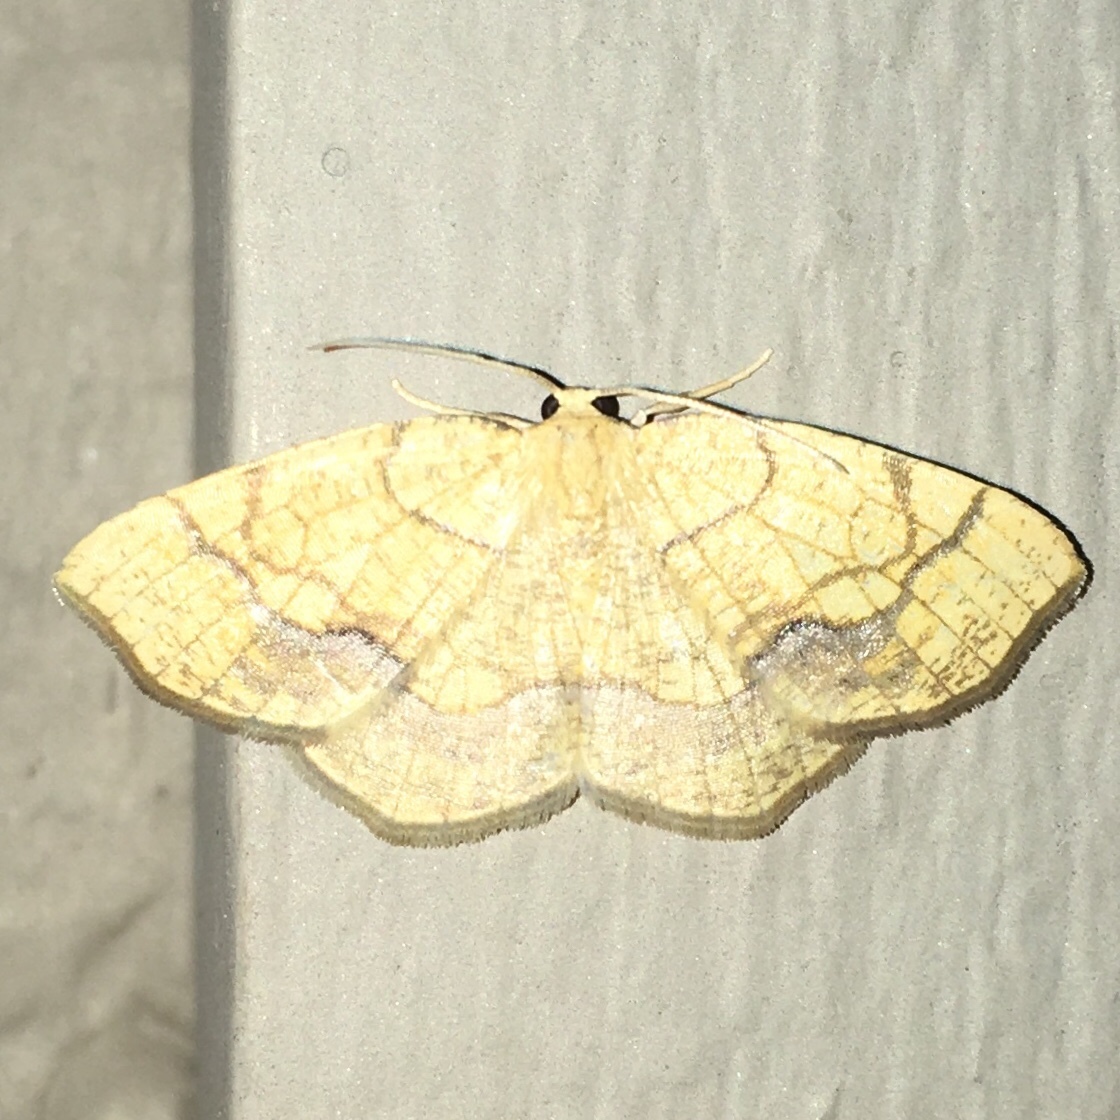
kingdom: Animalia
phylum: Arthropoda
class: Insecta
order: Lepidoptera
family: Geometridae
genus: Nematocampa
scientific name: Nematocampa resistaria
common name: Horned spanworm moth
